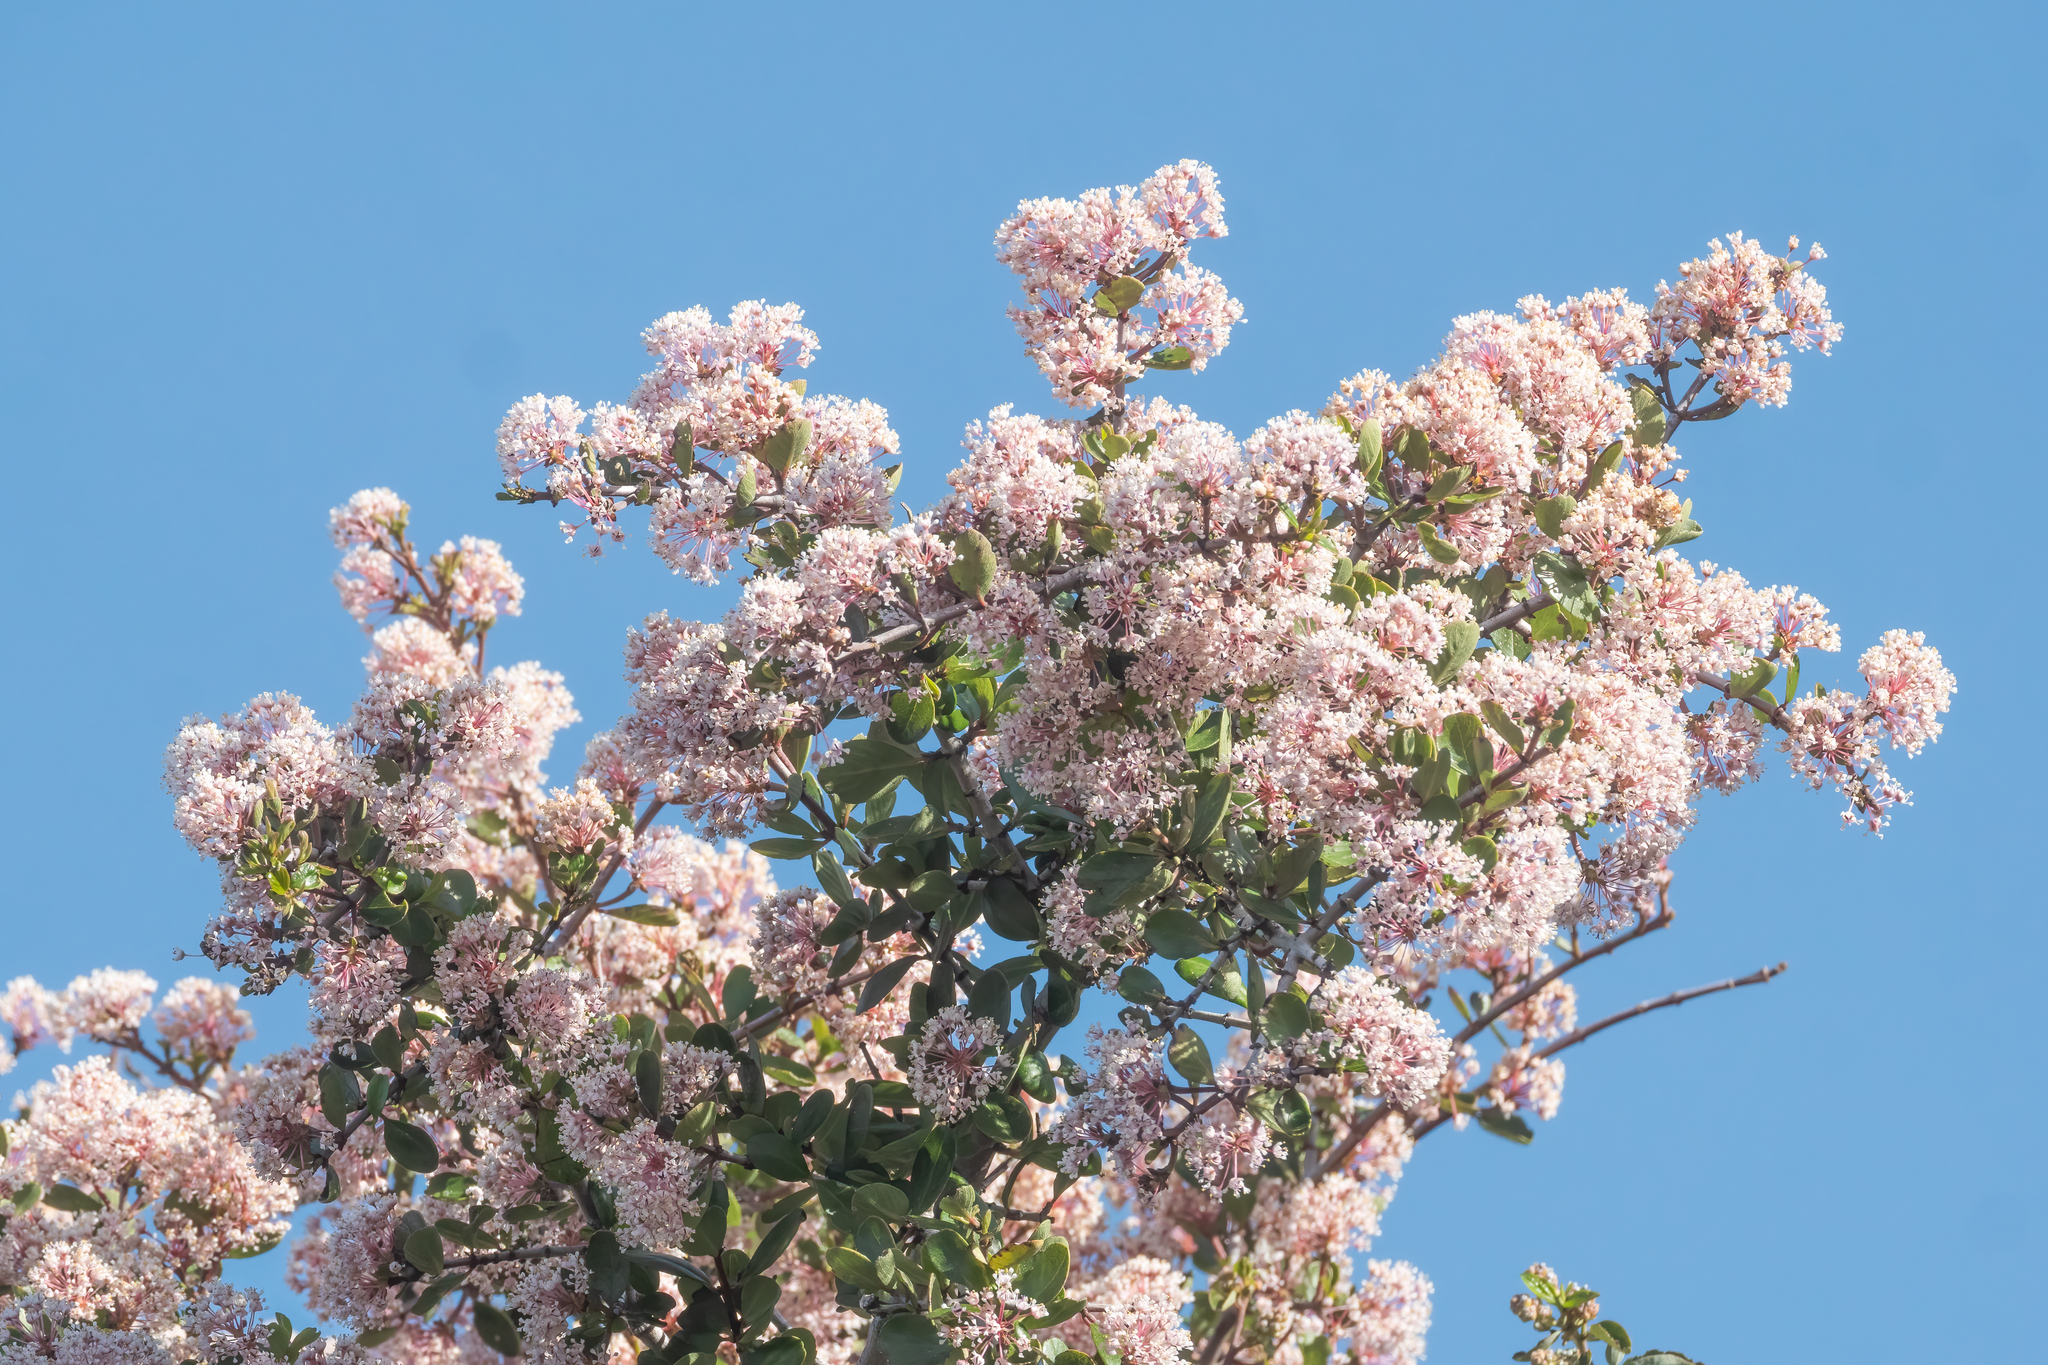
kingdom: Plantae
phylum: Tracheophyta
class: Magnoliopsida
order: Rosales
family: Rhamnaceae
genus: Ceanothus
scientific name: Ceanothus cuneatus
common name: Cuneate ceanothus
